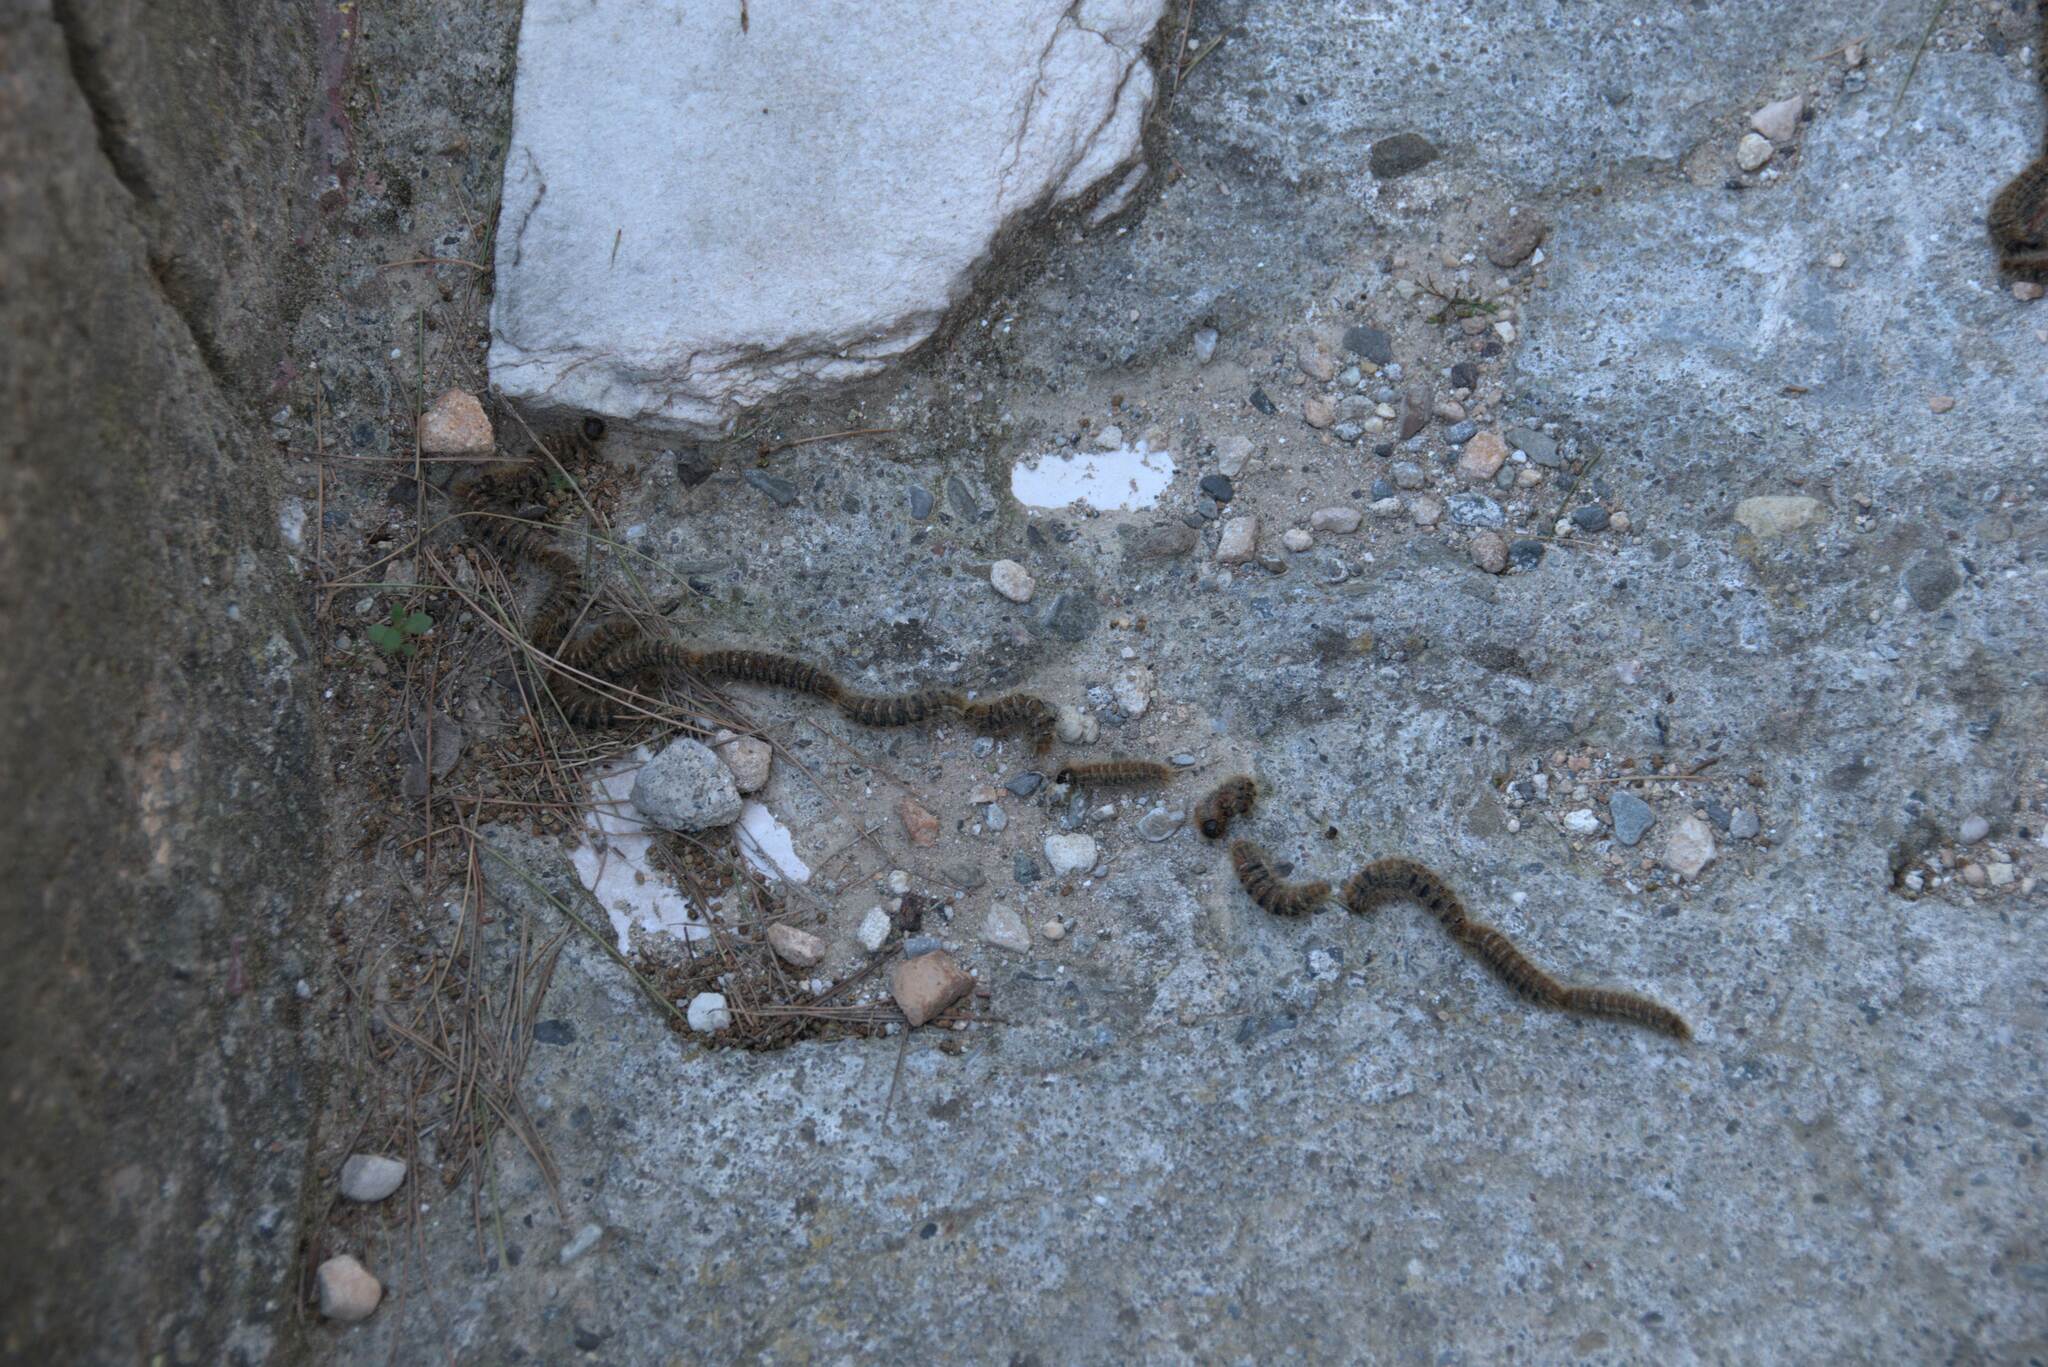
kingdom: Animalia
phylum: Arthropoda
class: Insecta
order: Lepidoptera
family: Notodontidae
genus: Thaumetopoea
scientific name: Thaumetopoea
